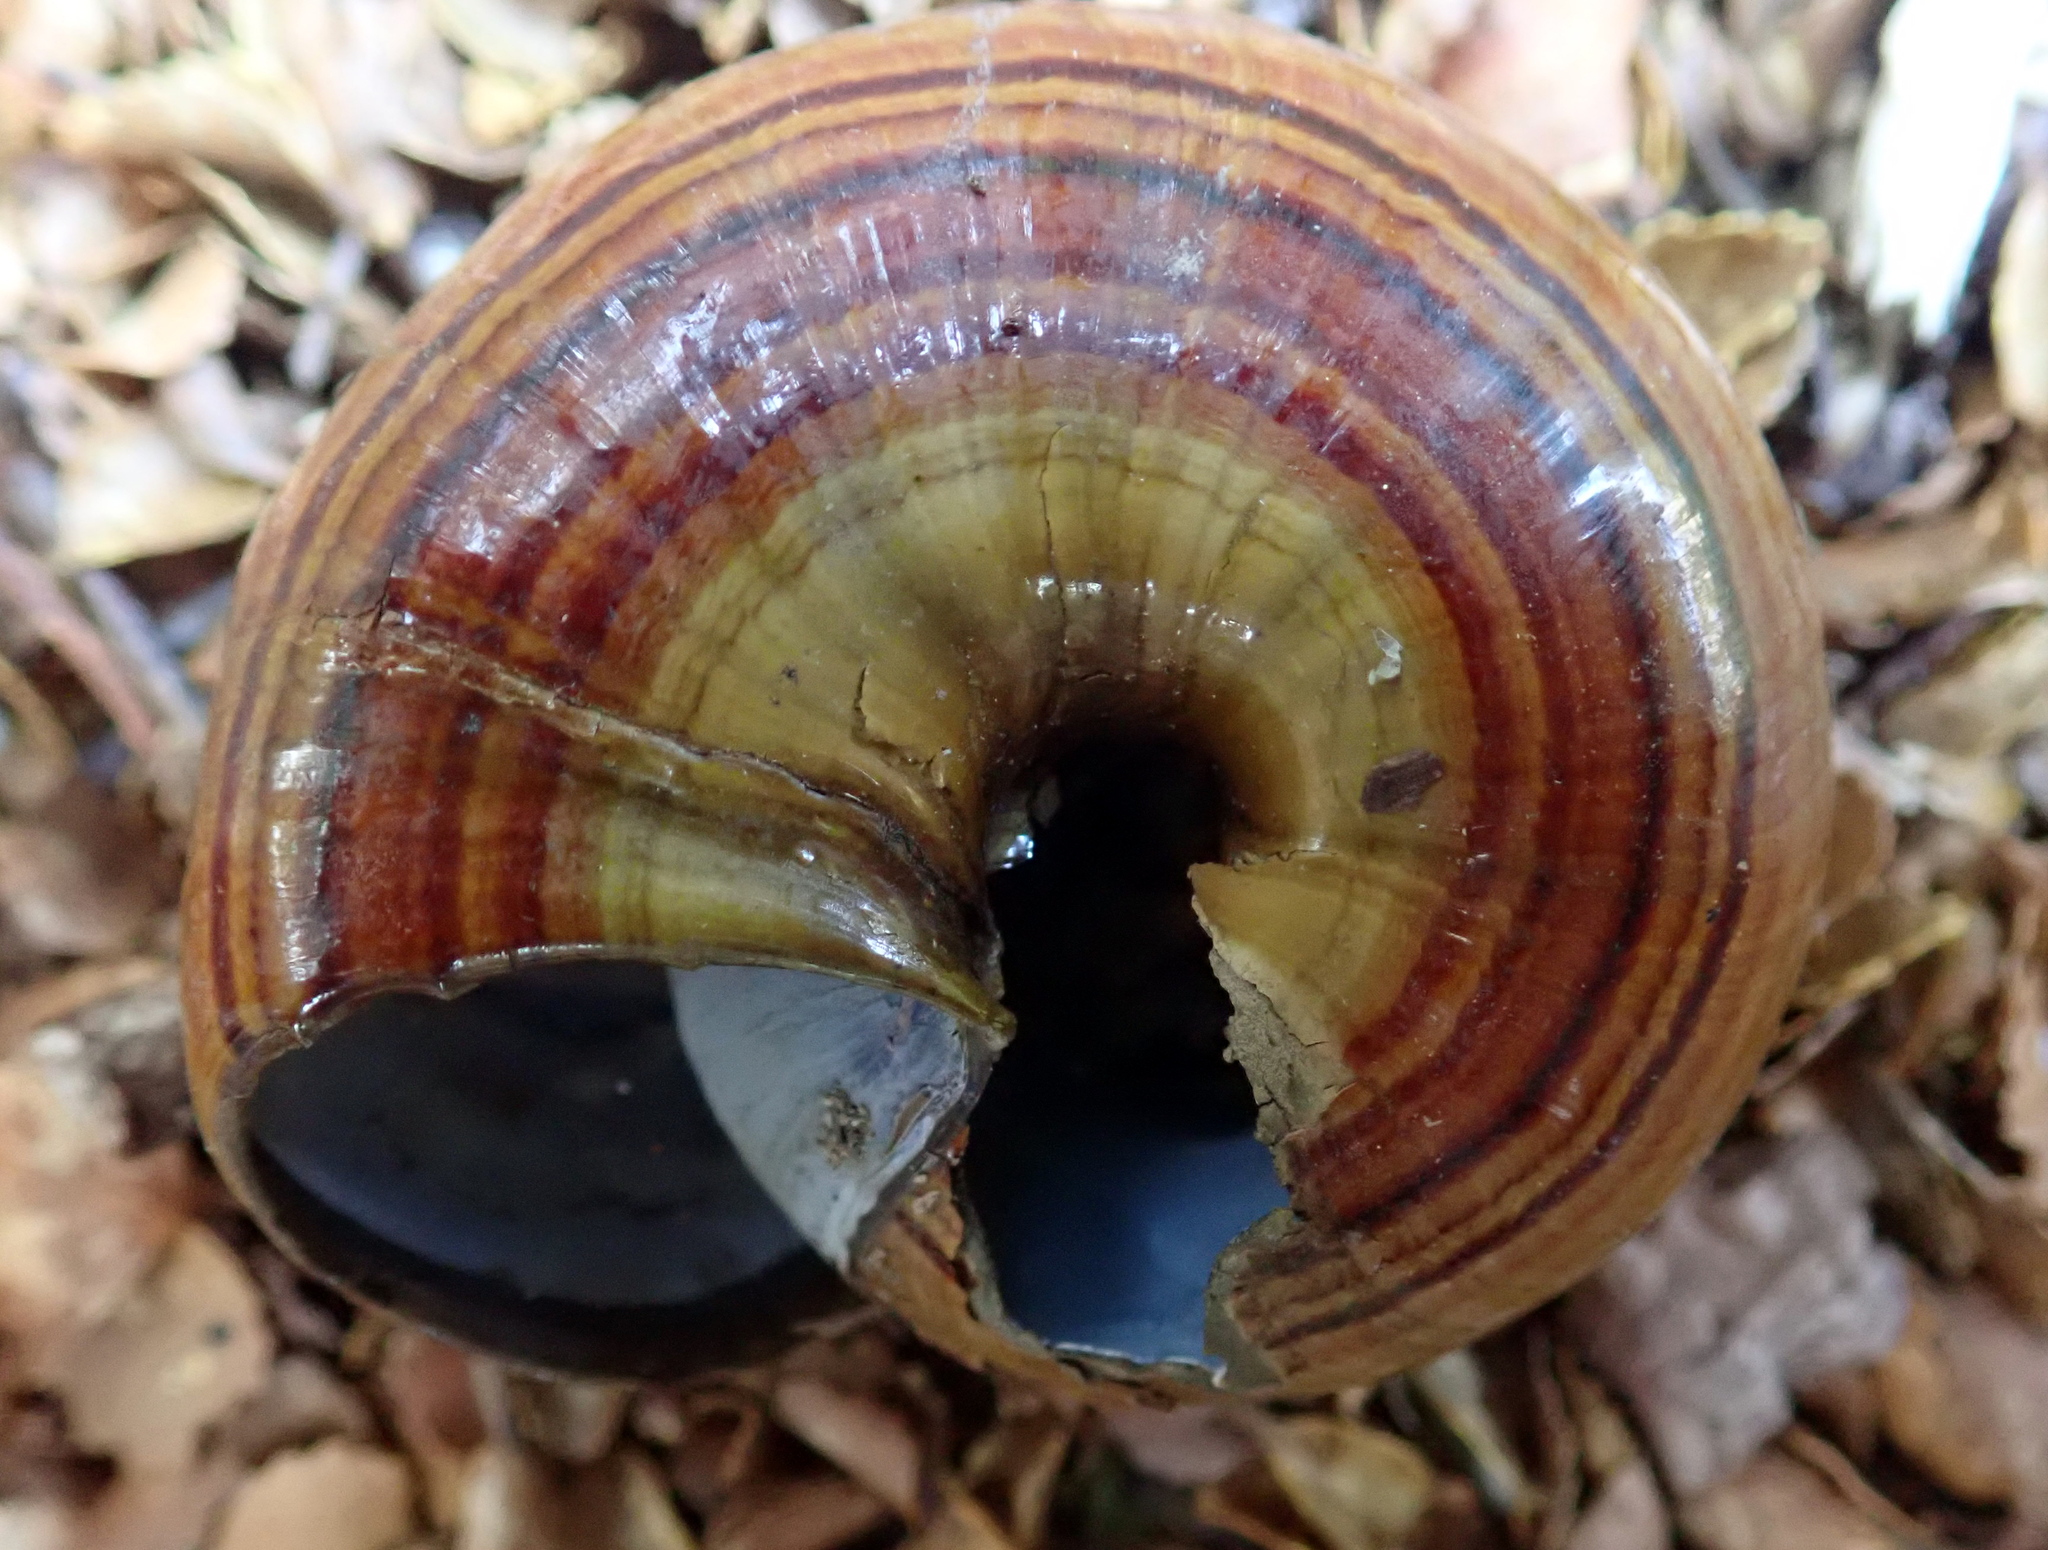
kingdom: Animalia
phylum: Mollusca
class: Gastropoda
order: Stylommatophora
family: Rhytididae
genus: Powelliphanta
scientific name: Powelliphanta hochstetteri
